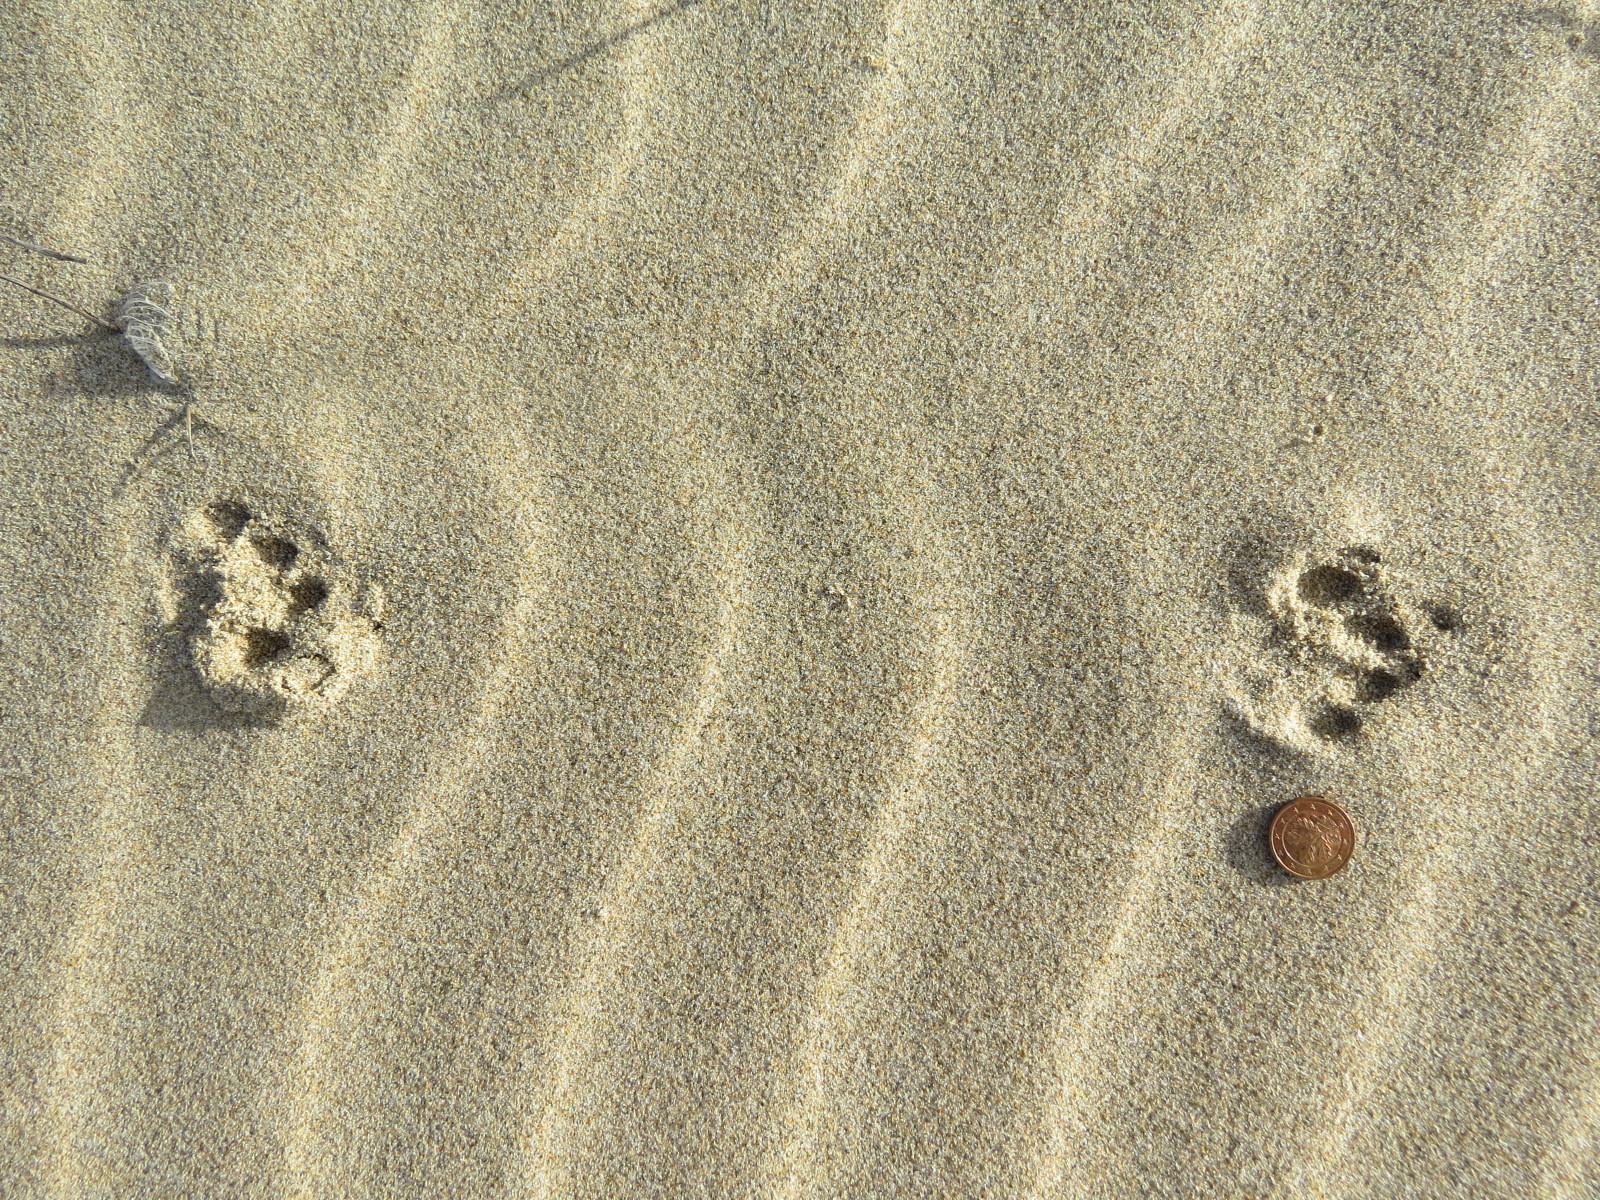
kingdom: Animalia
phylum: Chordata
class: Mammalia
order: Carnivora
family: Felidae
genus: Lynx
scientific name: Lynx rufus
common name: Bobcat
